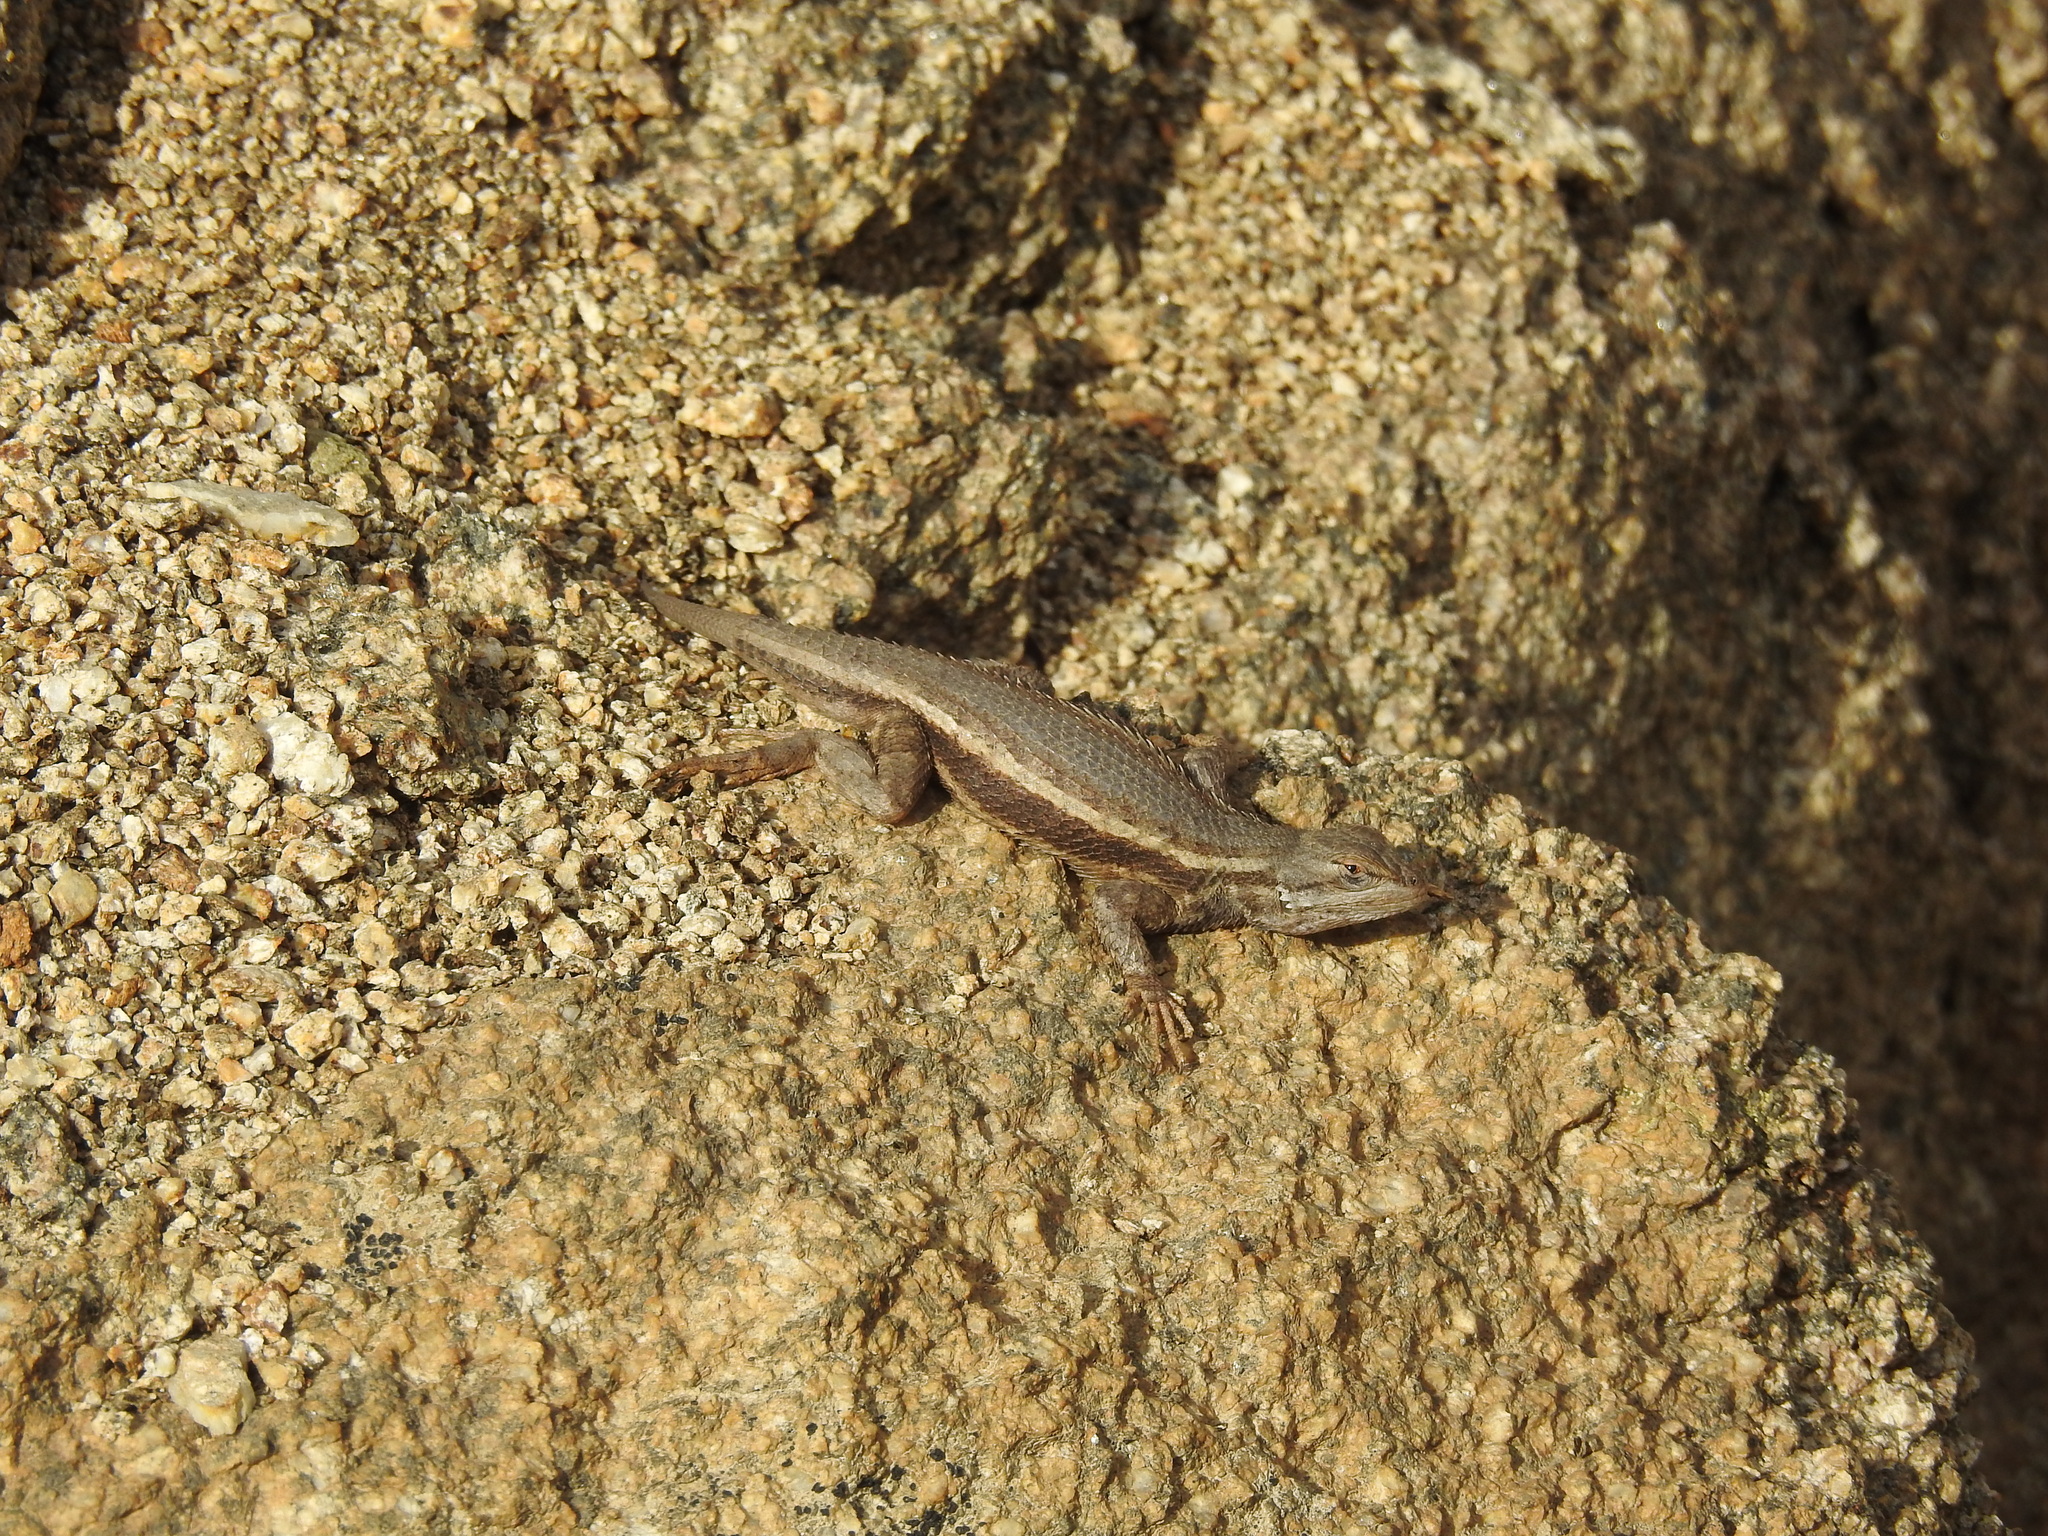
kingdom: Animalia
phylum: Chordata
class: Squamata
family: Phrynosomatidae
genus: Sceloporus
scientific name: Sceloporus tristichus
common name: Plateau fence lizard
